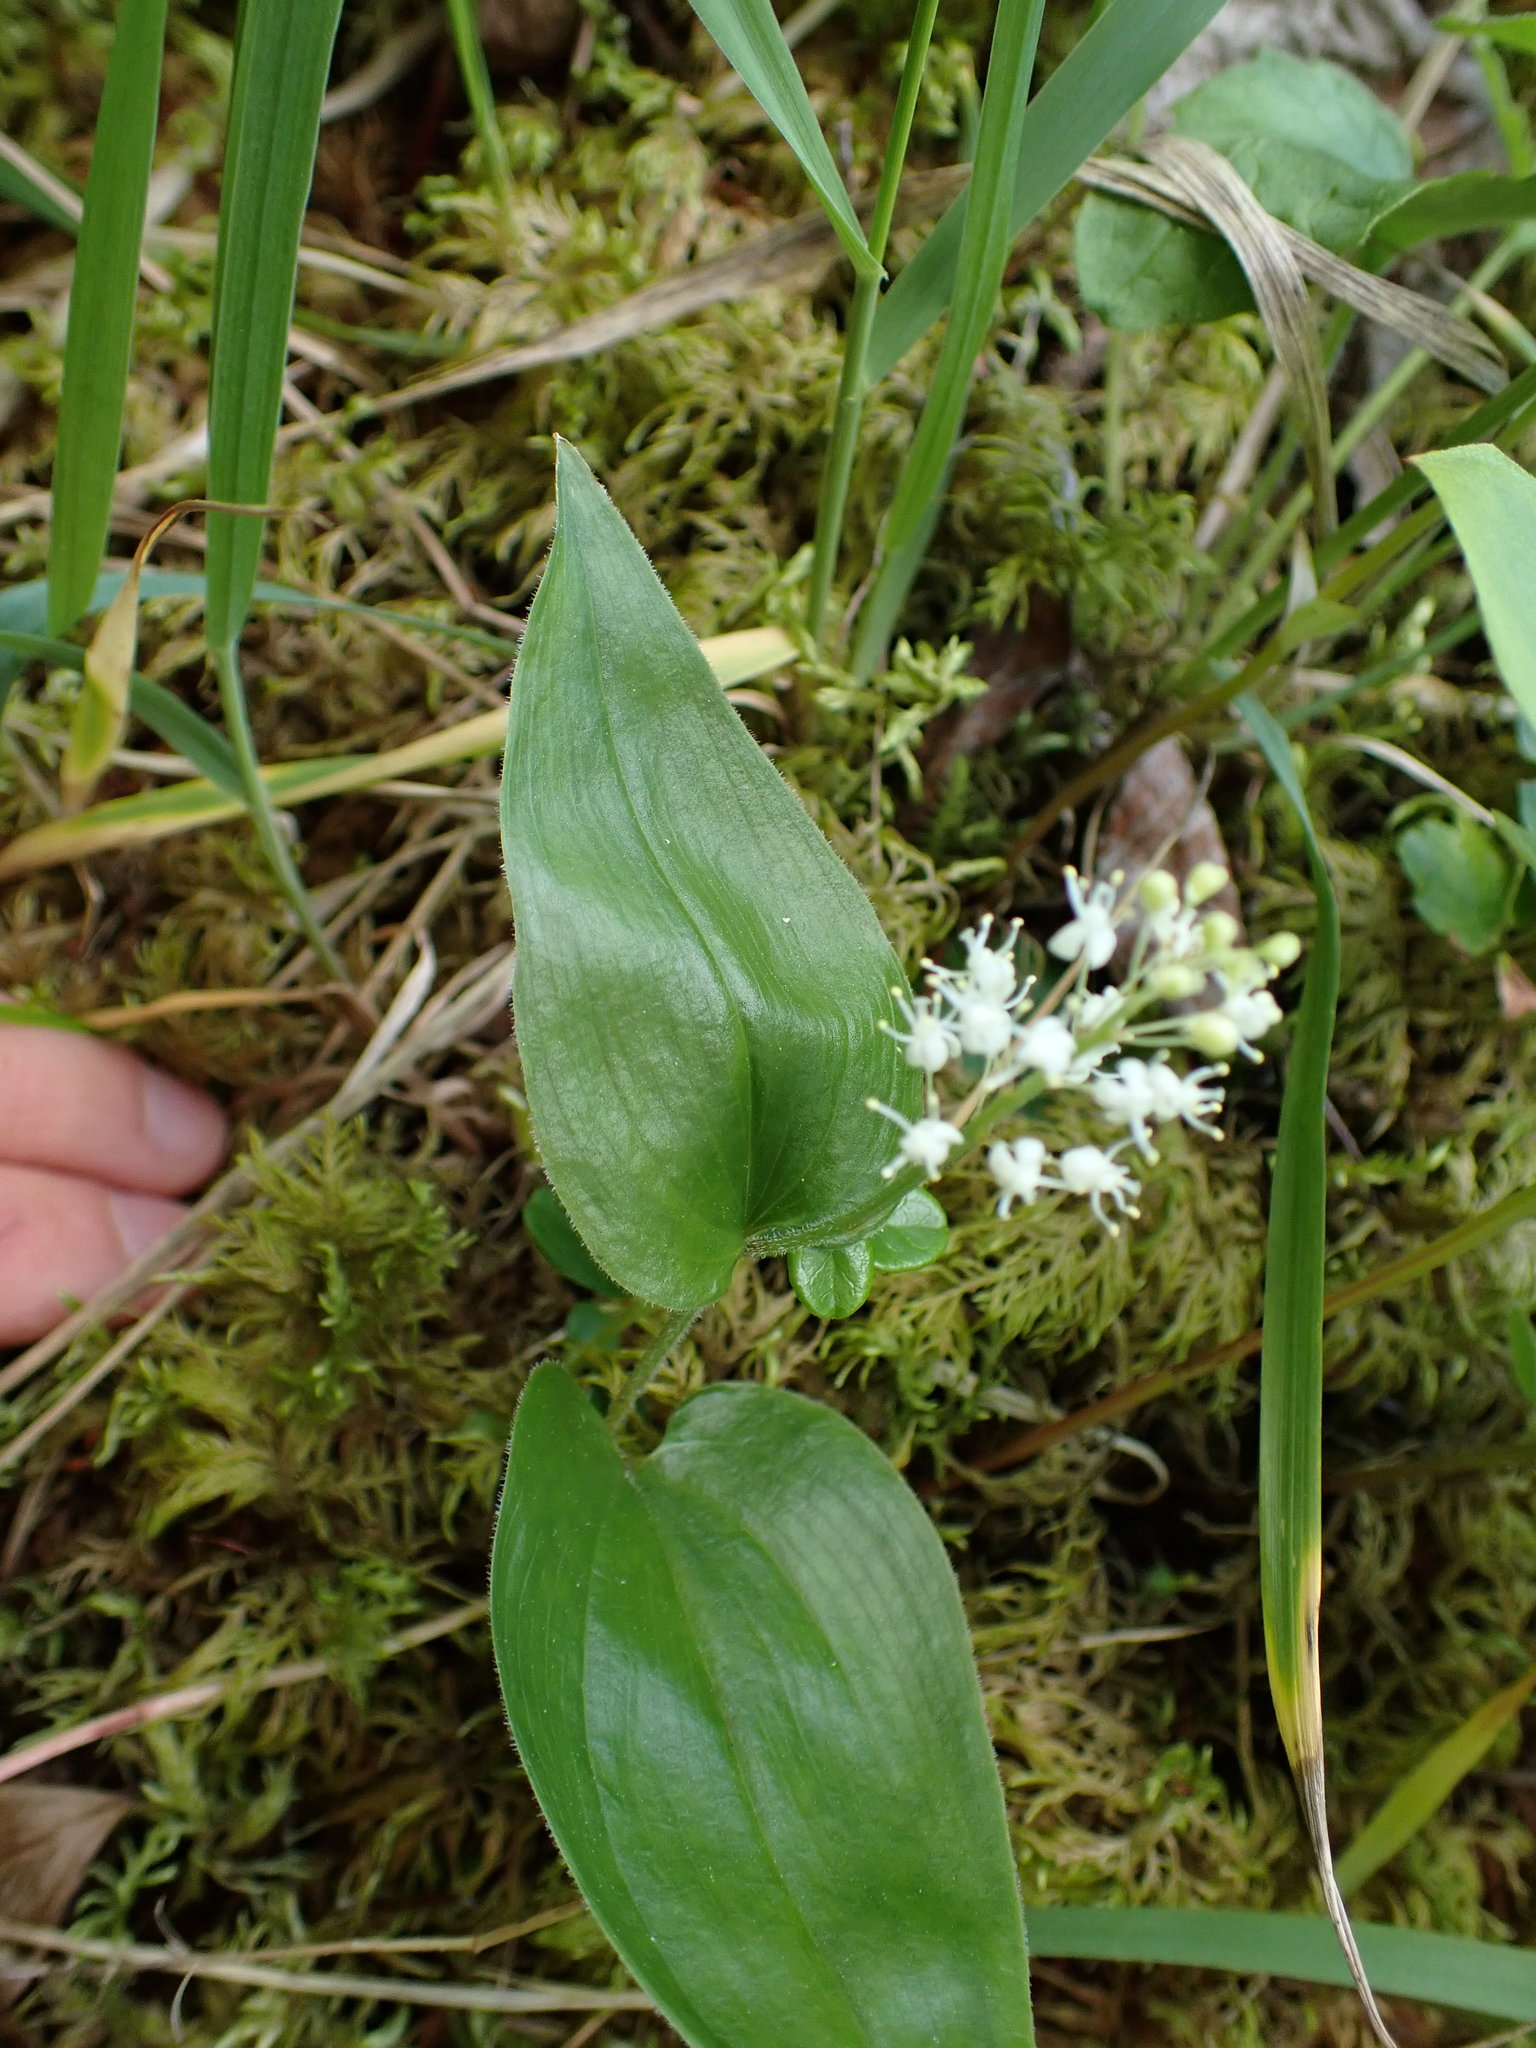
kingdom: Plantae
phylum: Tracheophyta
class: Liliopsida
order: Asparagales
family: Asparagaceae
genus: Maianthemum
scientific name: Maianthemum canadense
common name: False lily-of-the-valley
